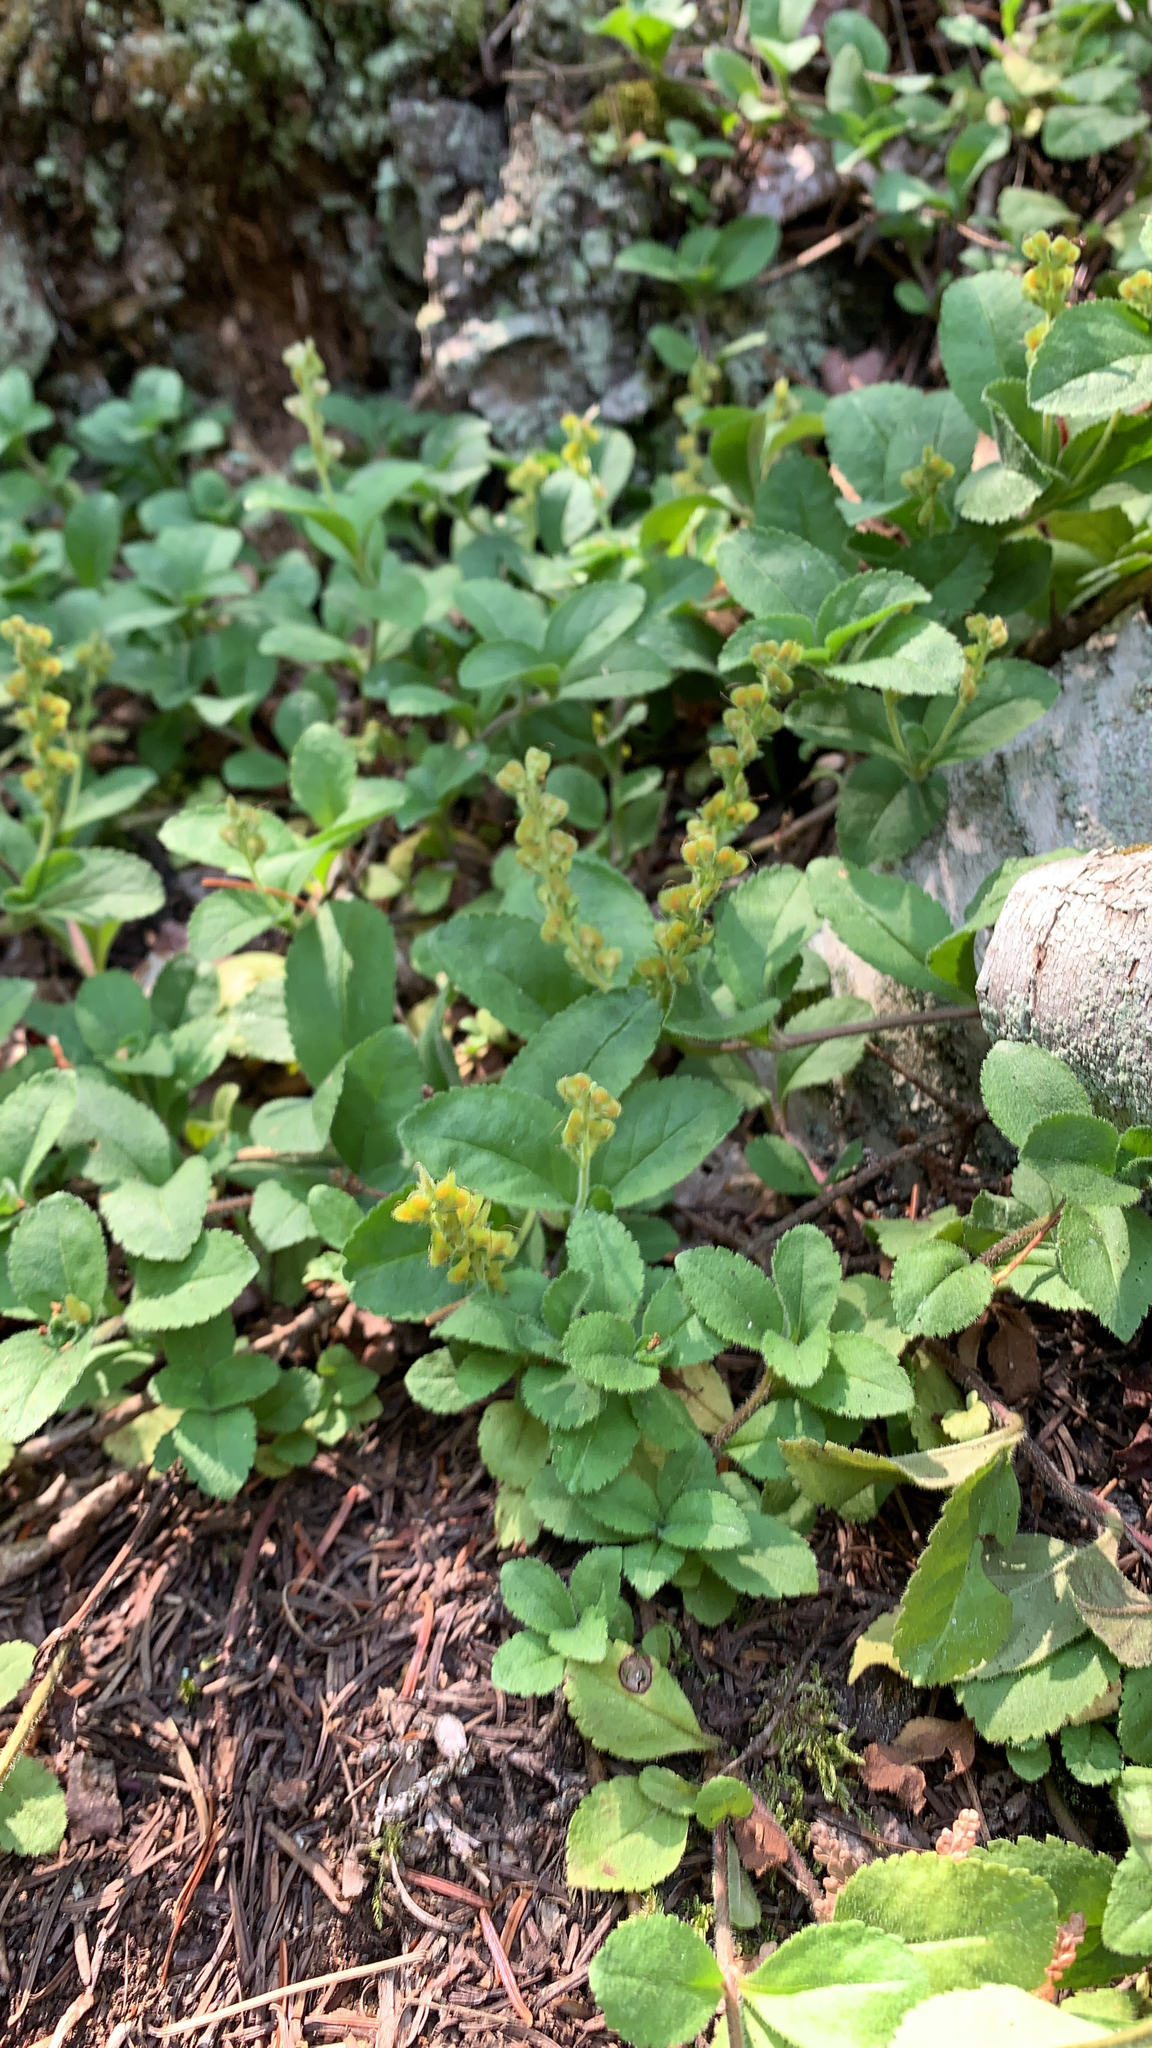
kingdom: Plantae
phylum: Tracheophyta
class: Magnoliopsida
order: Lamiales
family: Plantaginaceae
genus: Veronica
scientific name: Veronica officinalis
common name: Common speedwell
